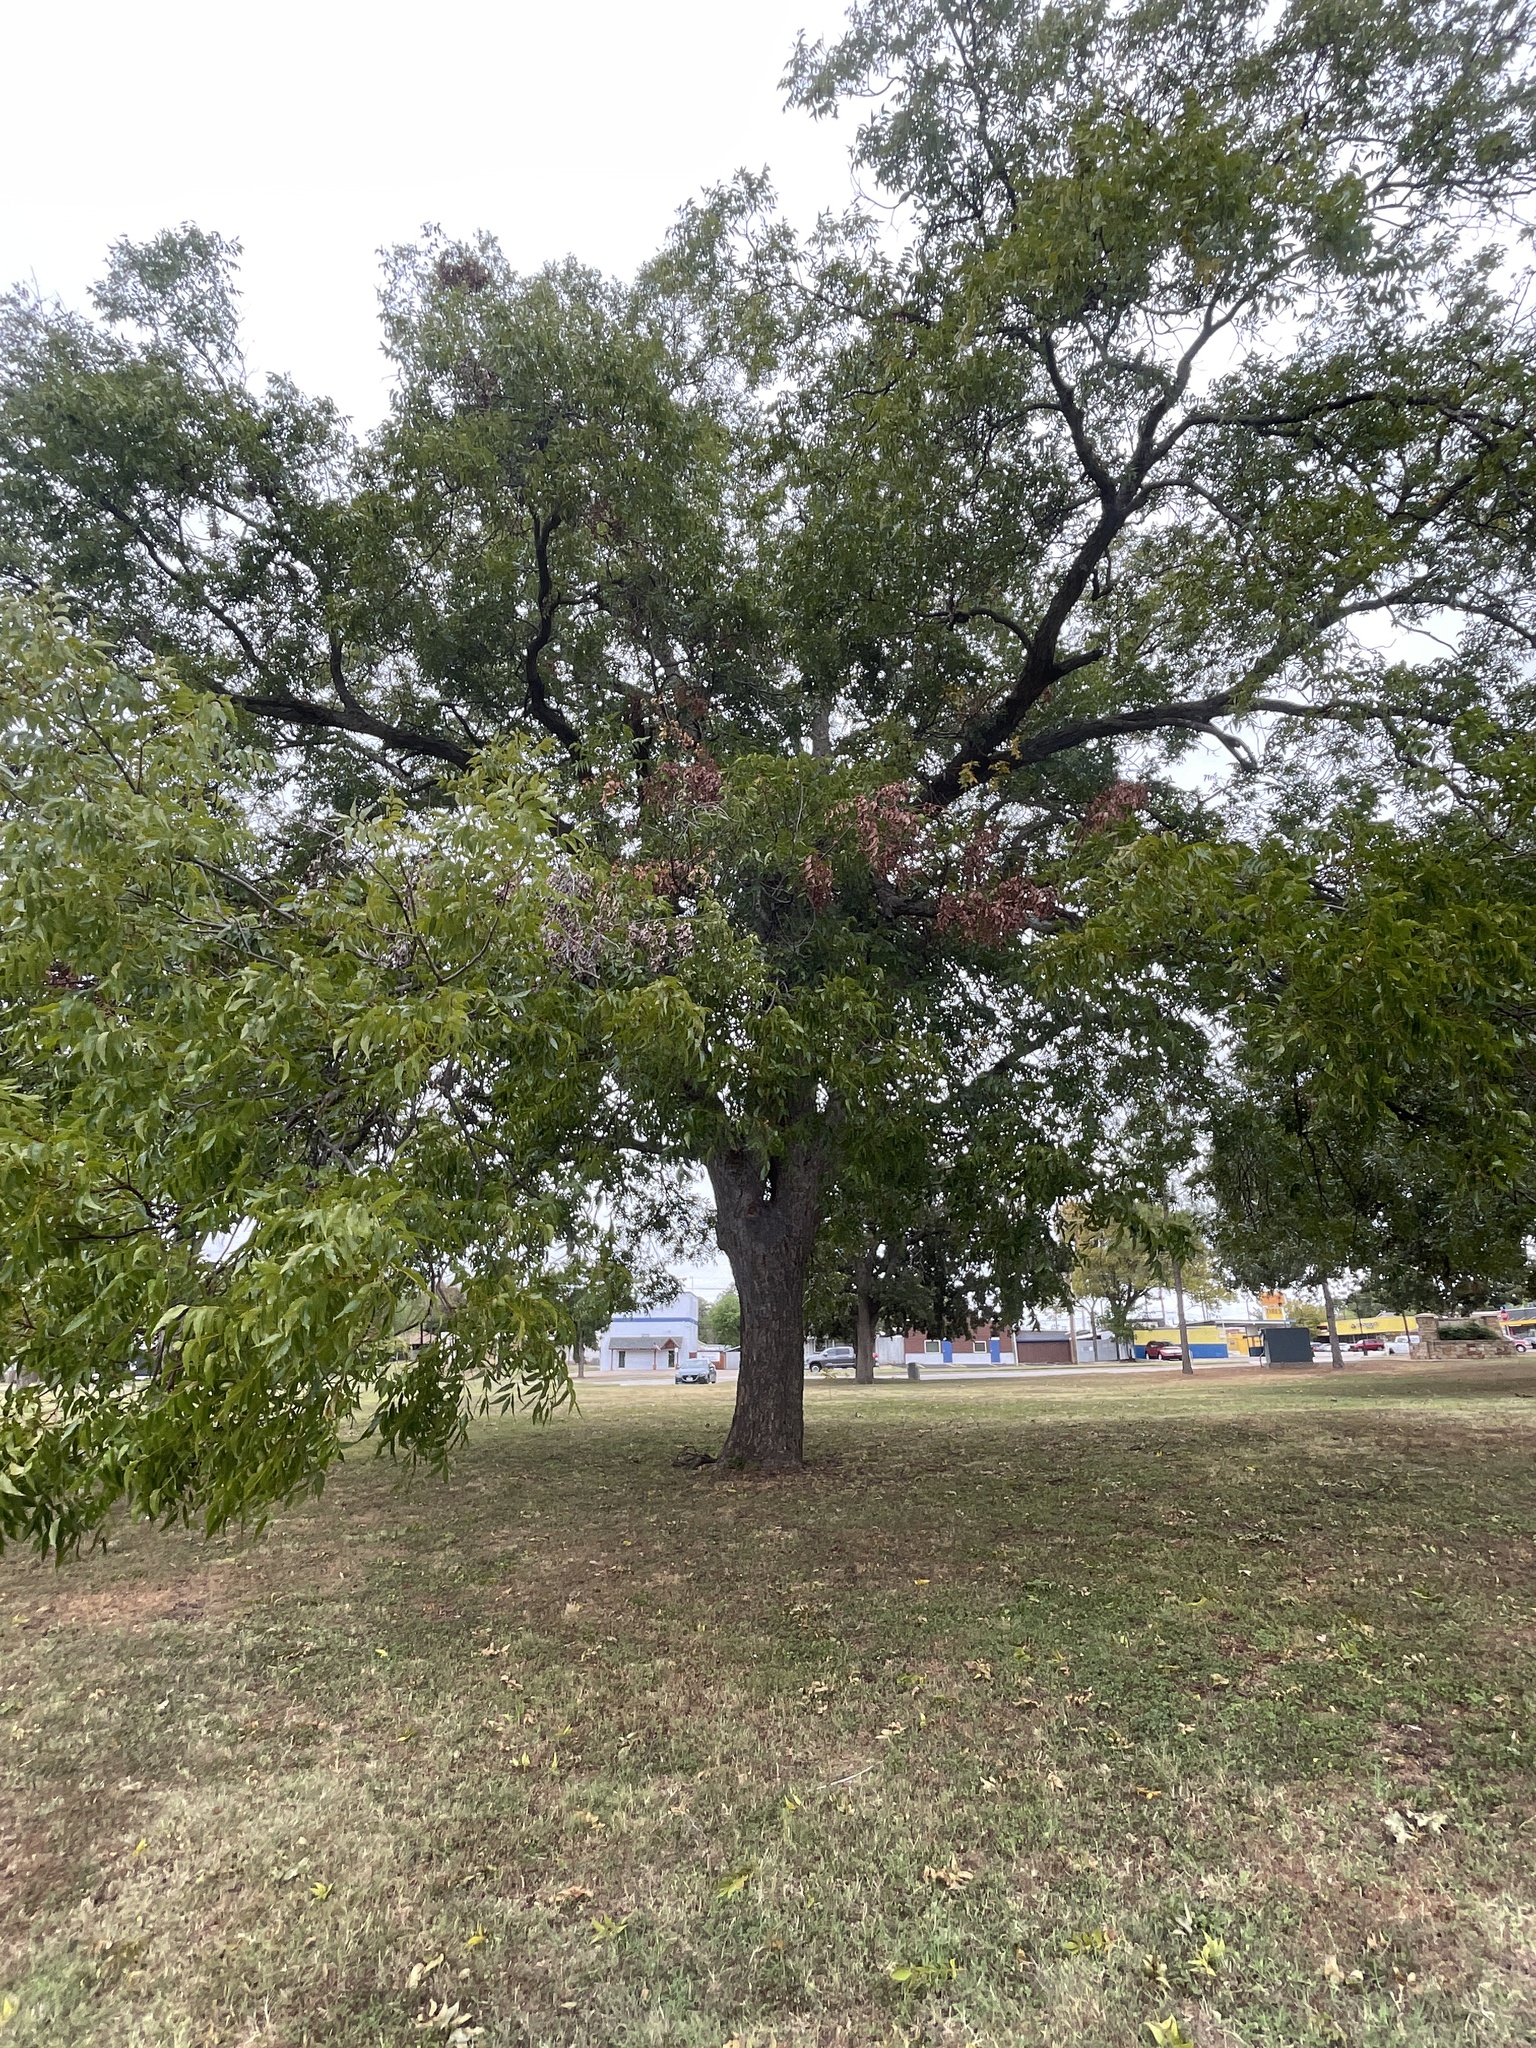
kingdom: Plantae
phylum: Tracheophyta
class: Magnoliopsida
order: Fagales
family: Juglandaceae
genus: Carya
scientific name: Carya illinoinensis
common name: Pecan
